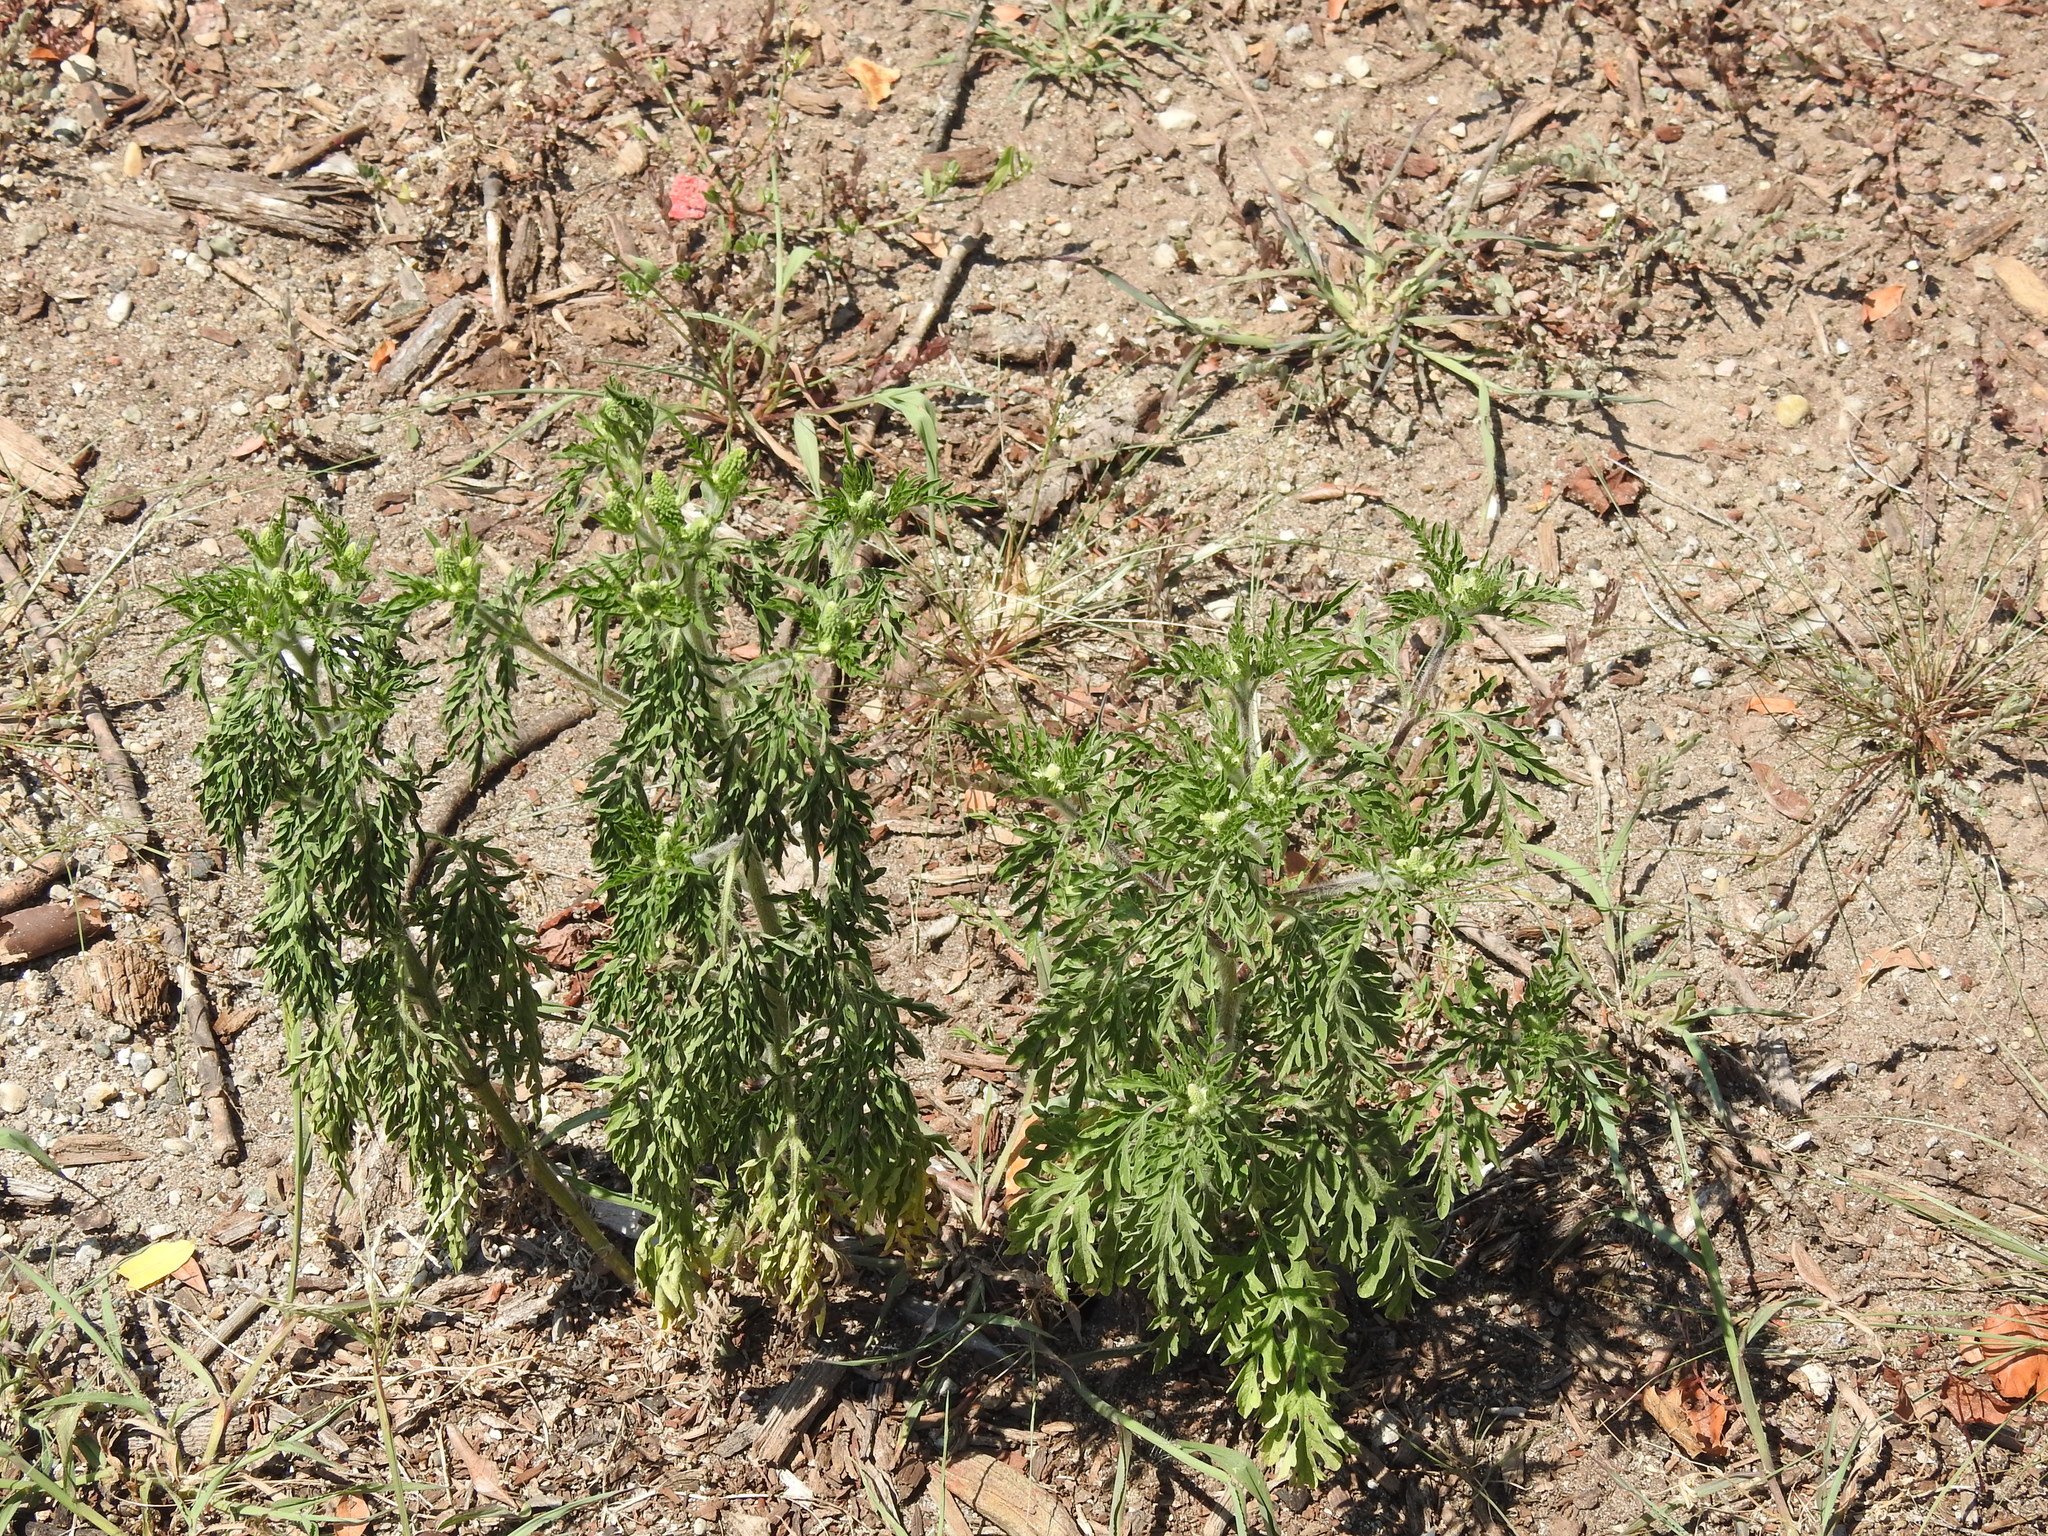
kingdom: Plantae
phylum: Tracheophyta
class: Magnoliopsida
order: Asterales
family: Asteraceae
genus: Ambrosia
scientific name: Ambrosia artemisiifolia
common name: Annual ragweed
